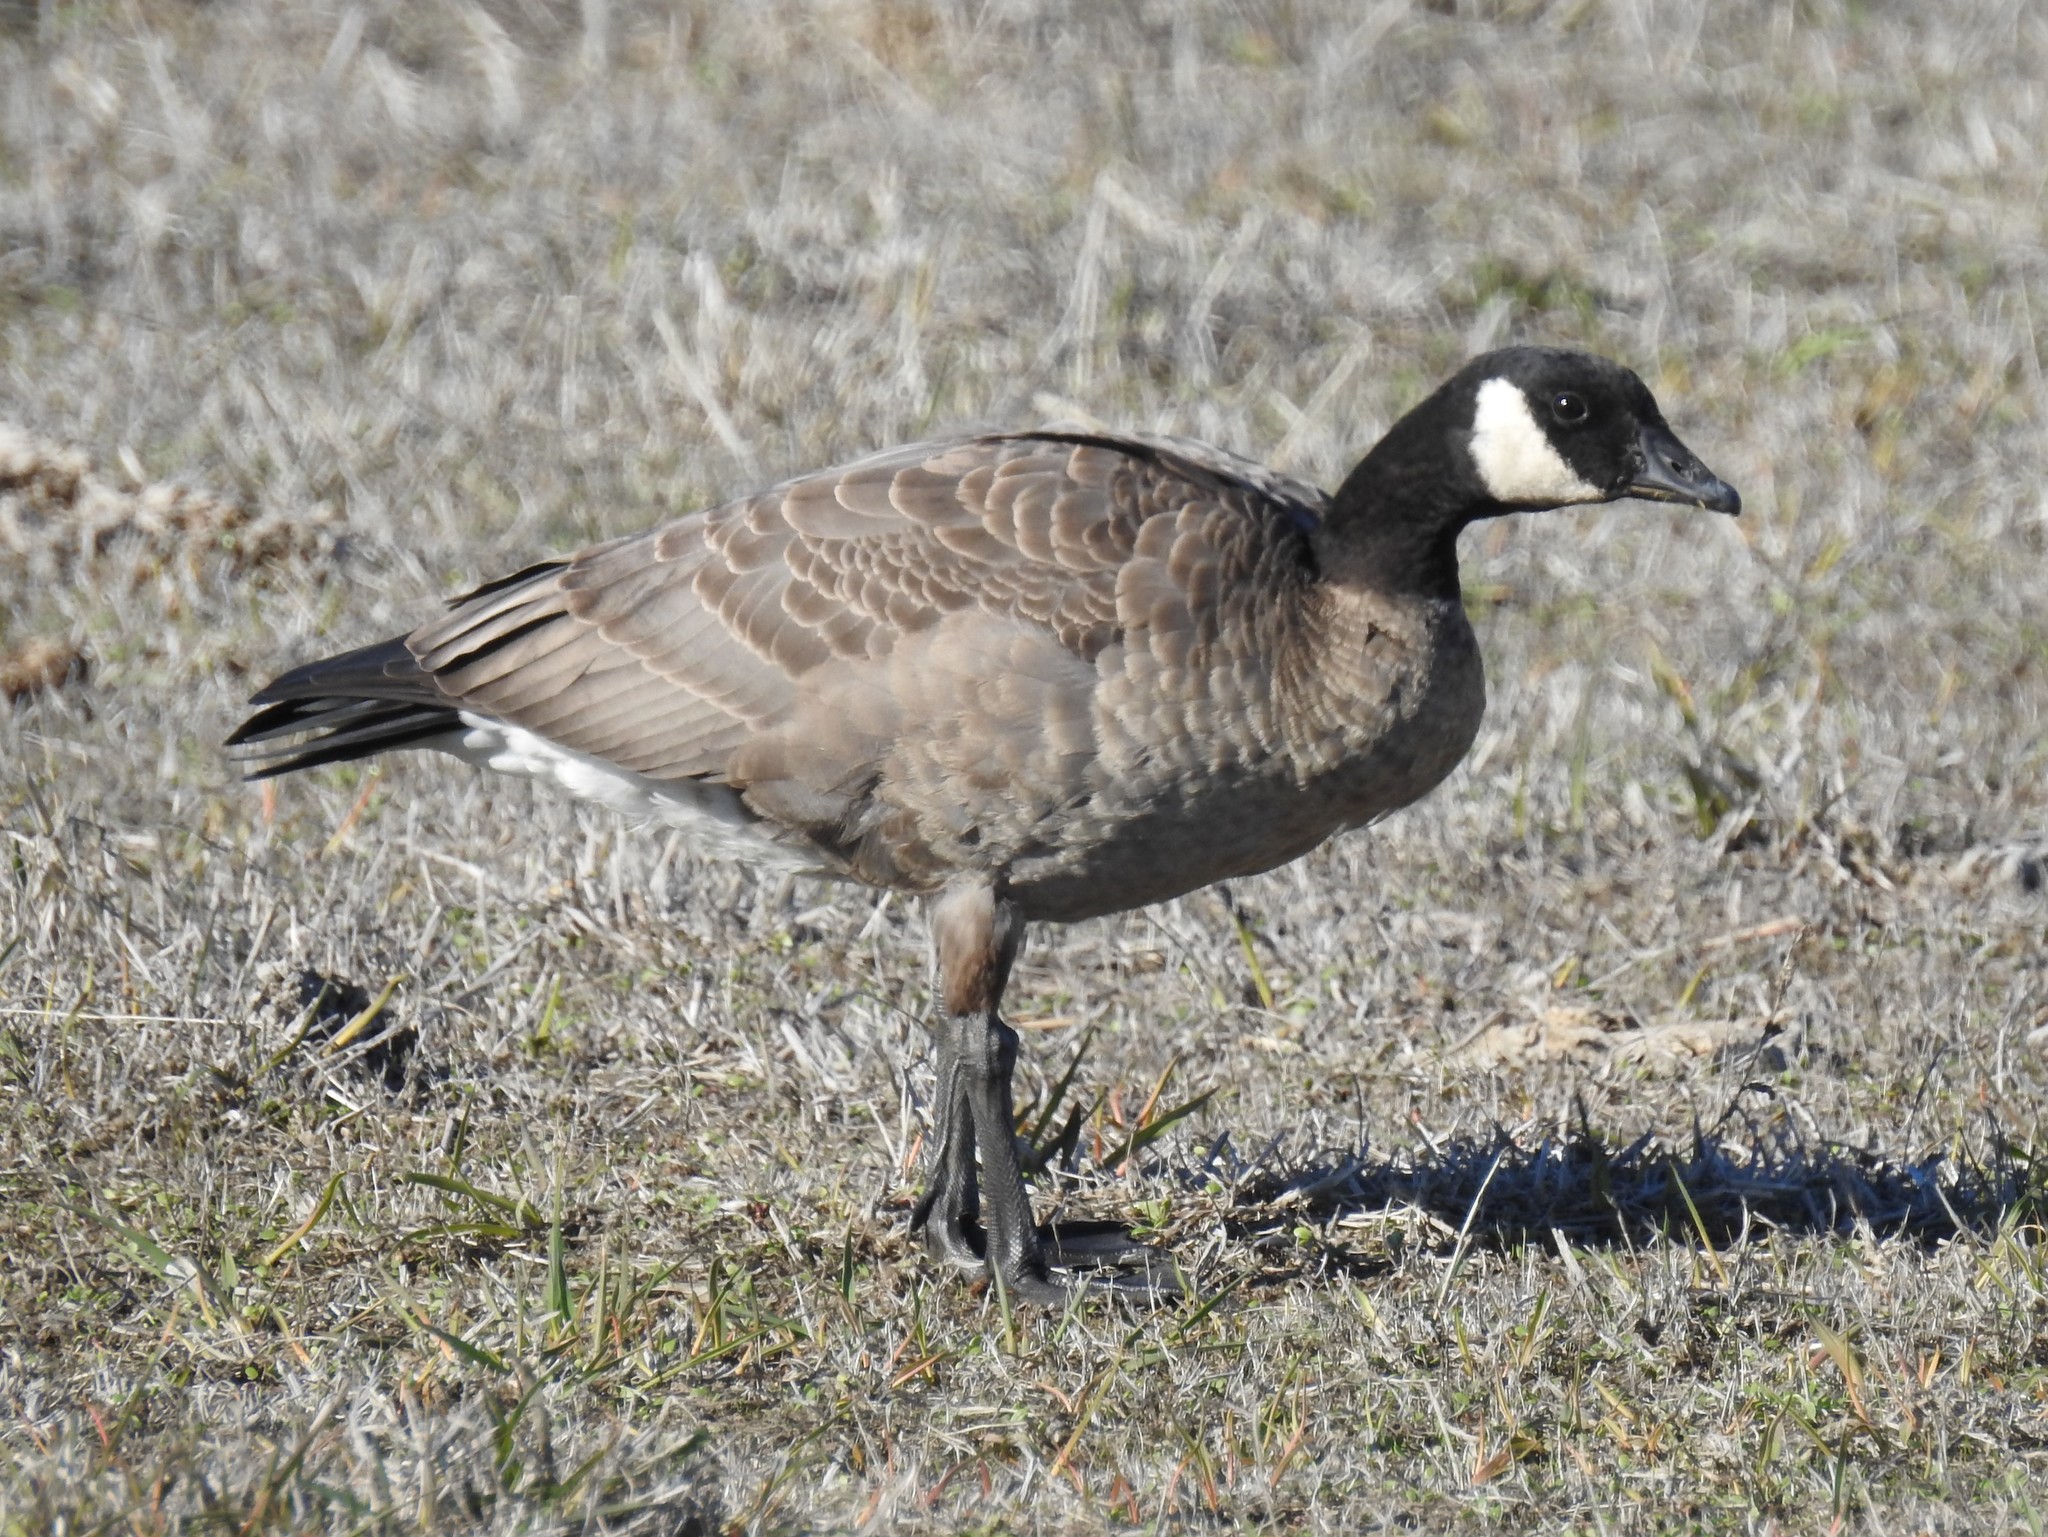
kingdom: Animalia
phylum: Chordata
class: Aves
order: Anseriformes
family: Anatidae
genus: Branta
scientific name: Branta hutchinsii
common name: Cackling goose
